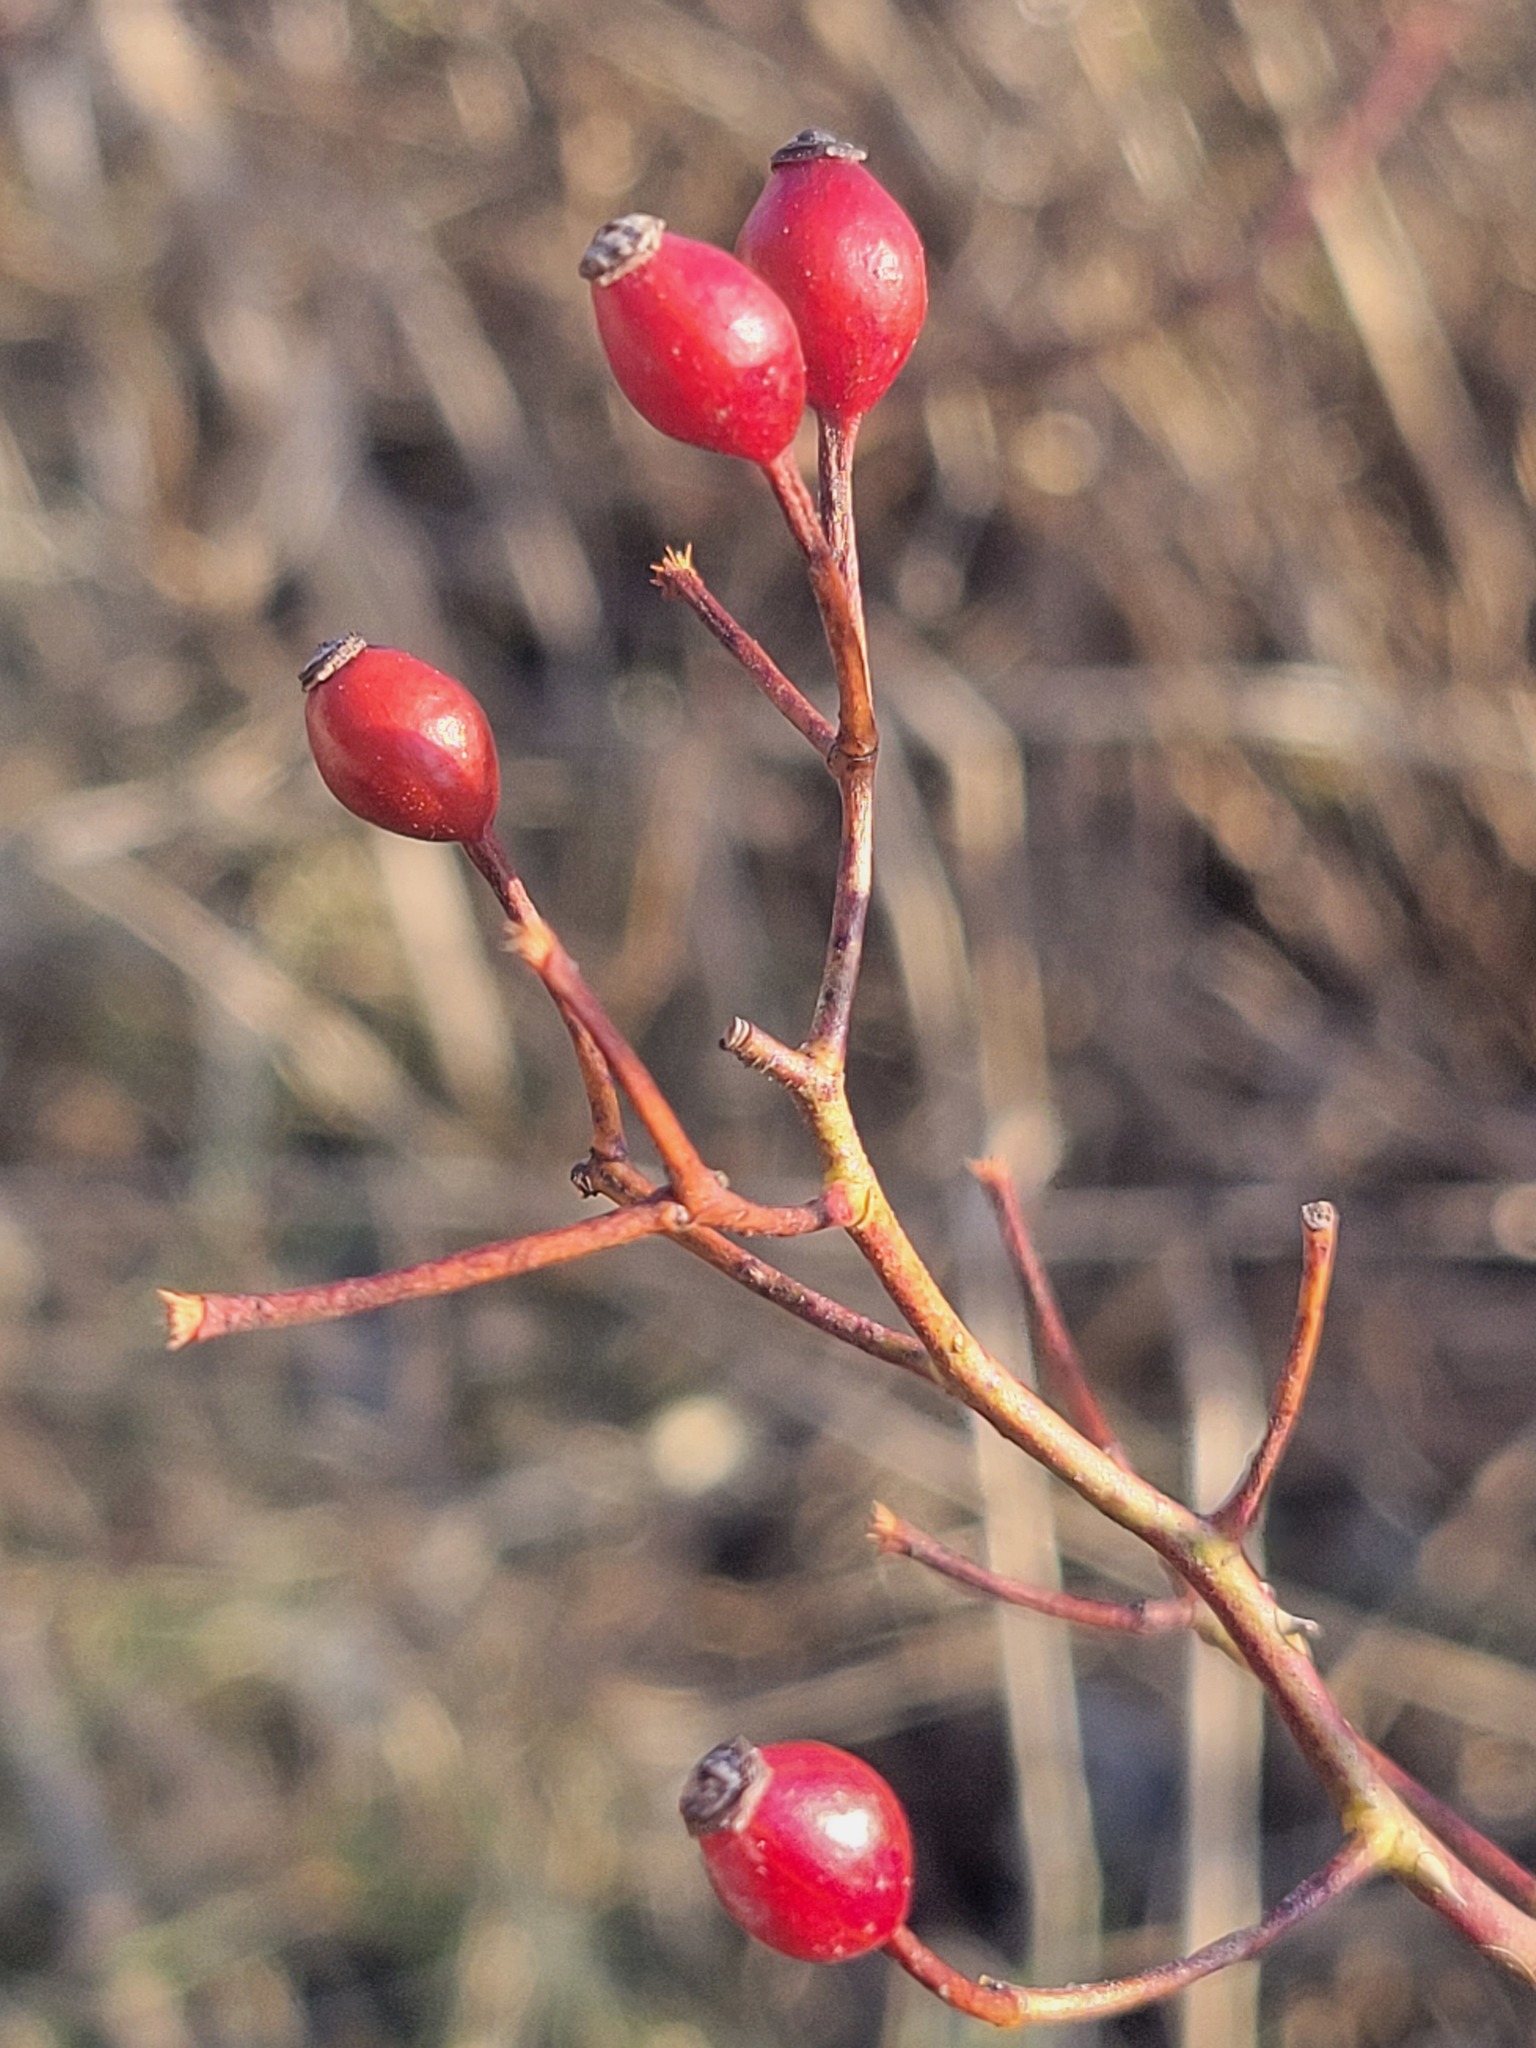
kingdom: Plantae
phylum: Tracheophyta
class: Magnoliopsida
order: Rosales
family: Rosaceae
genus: Rosa
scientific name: Rosa multiflora
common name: Multiflora rose
